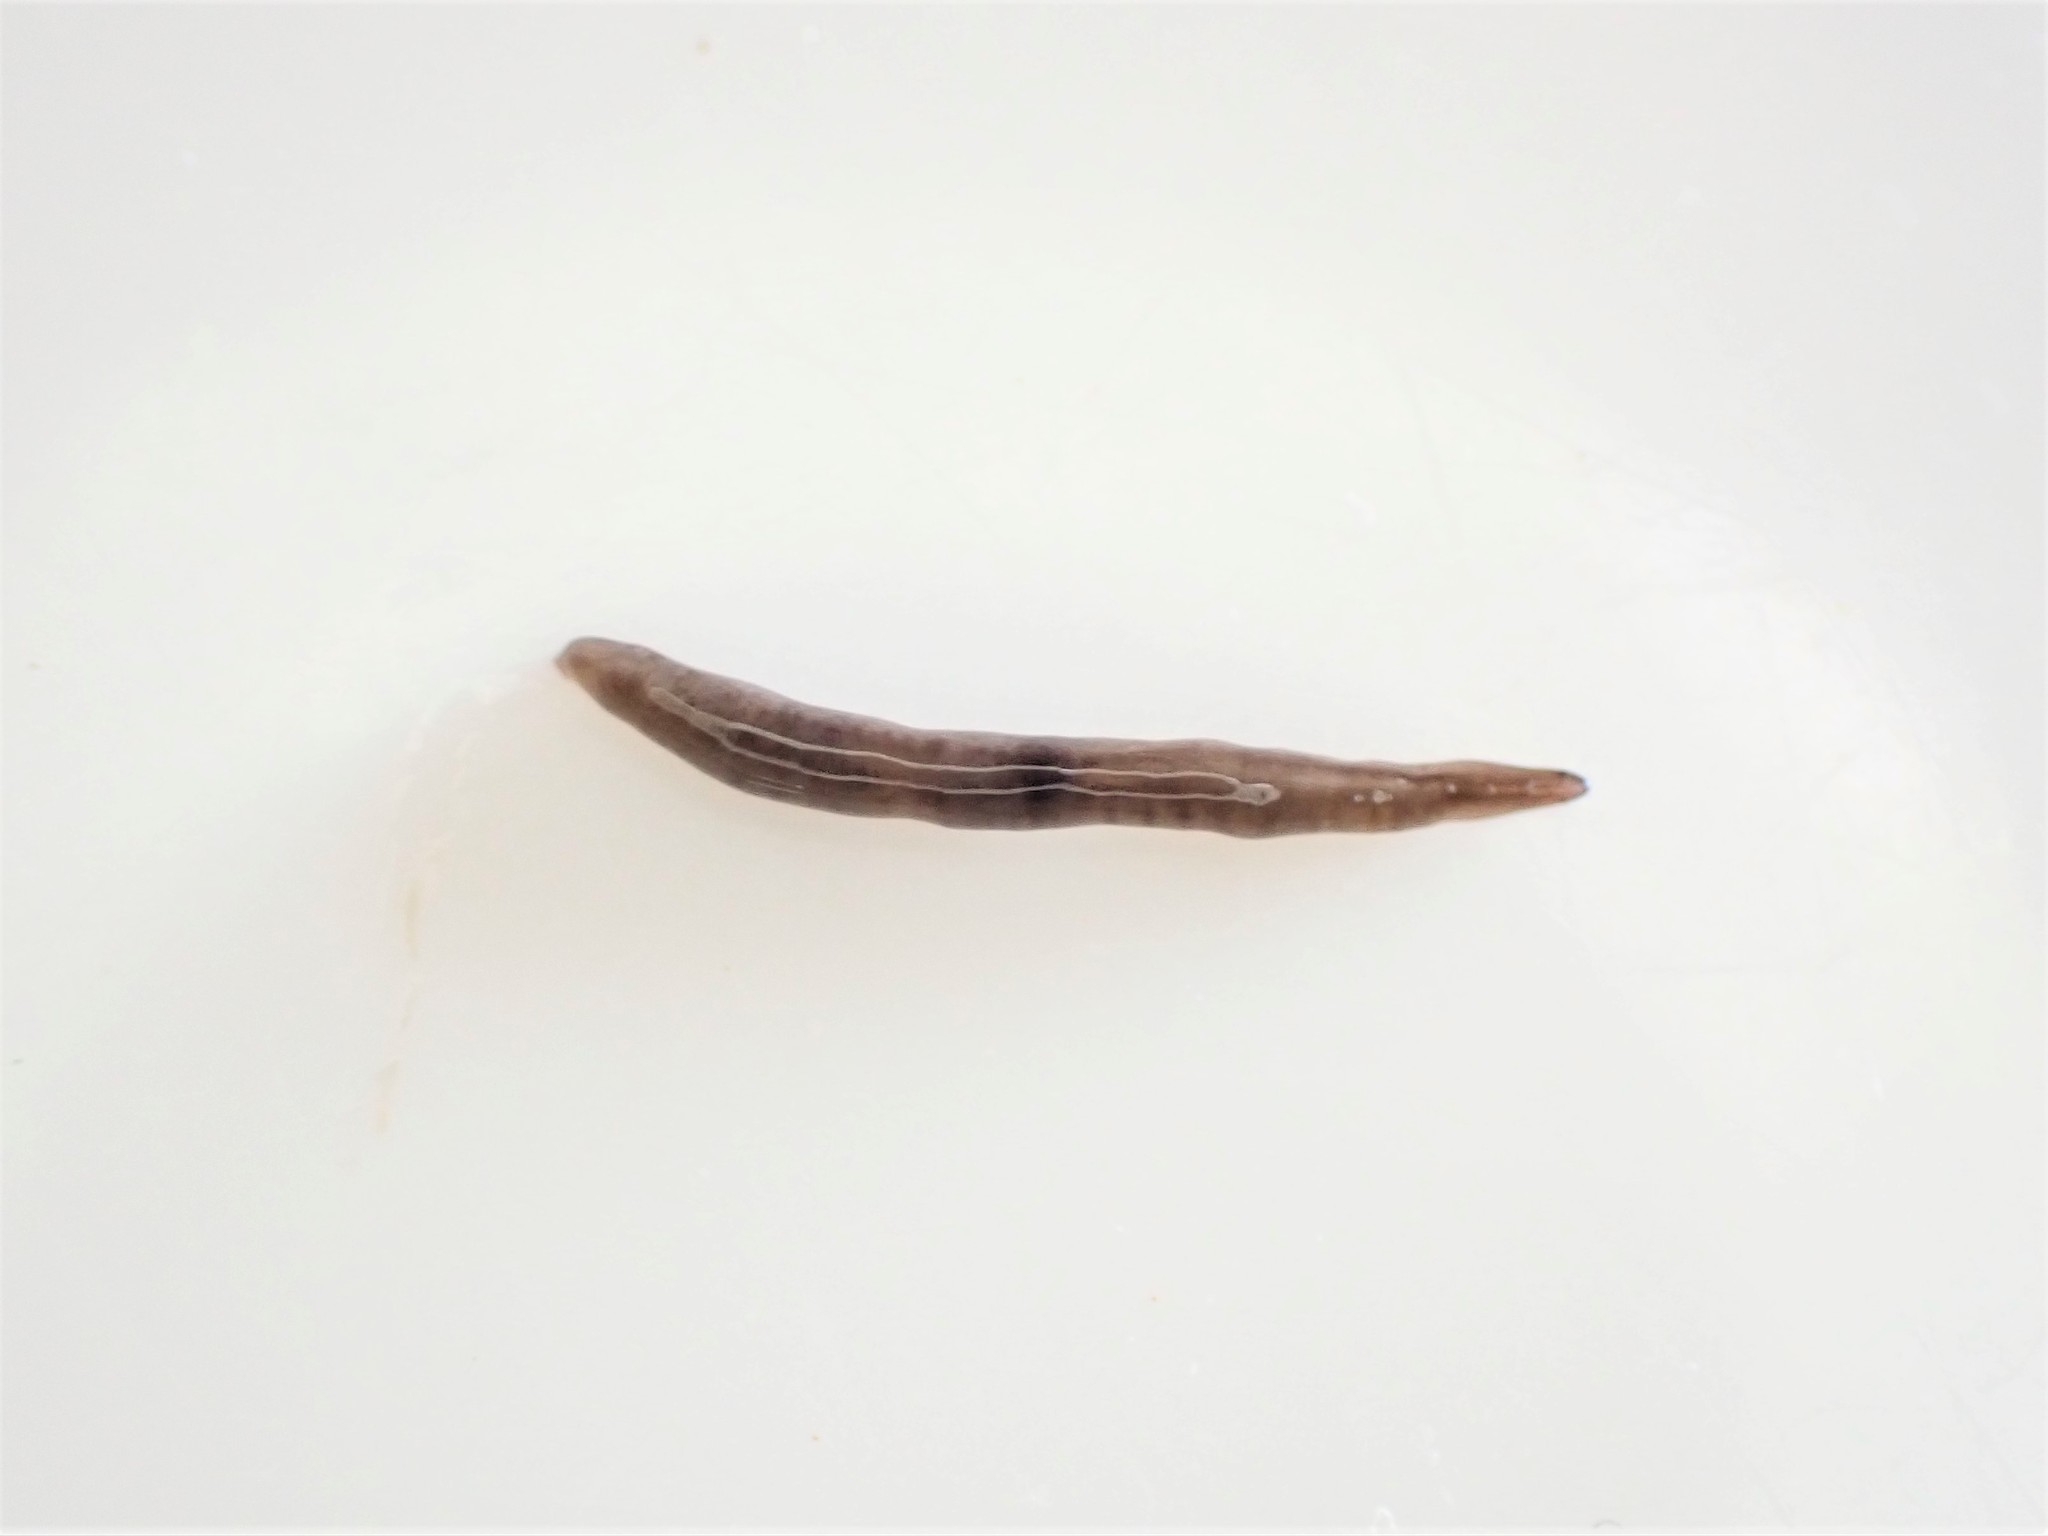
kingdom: Animalia
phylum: Platyhelminthes
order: Tricladida
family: Geoplanidae
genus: Rhynchodemus
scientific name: Rhynchodemus sylvaticus
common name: A flatworm
